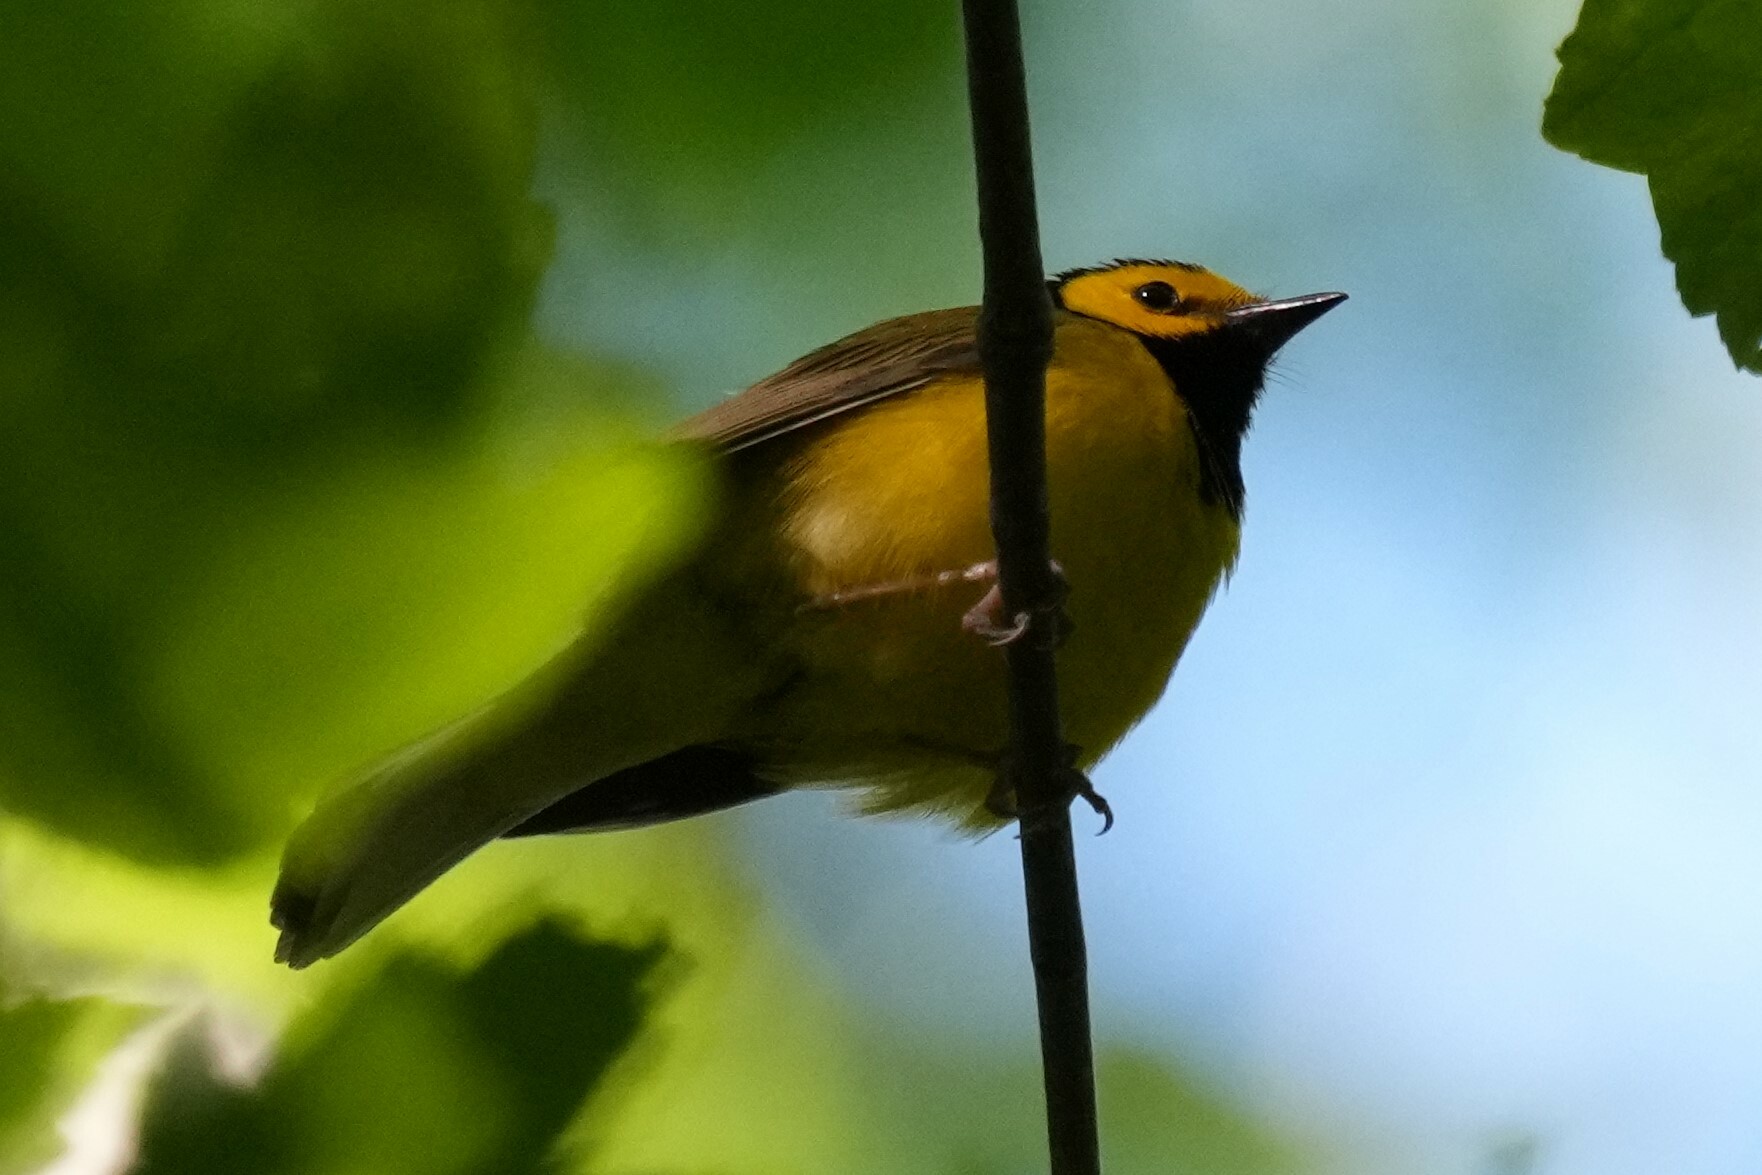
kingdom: Animalia
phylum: Chordata
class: Aves
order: Passeriformes
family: Parulidae
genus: Setophaga
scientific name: Setophaga citrina
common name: Hooded warbler
